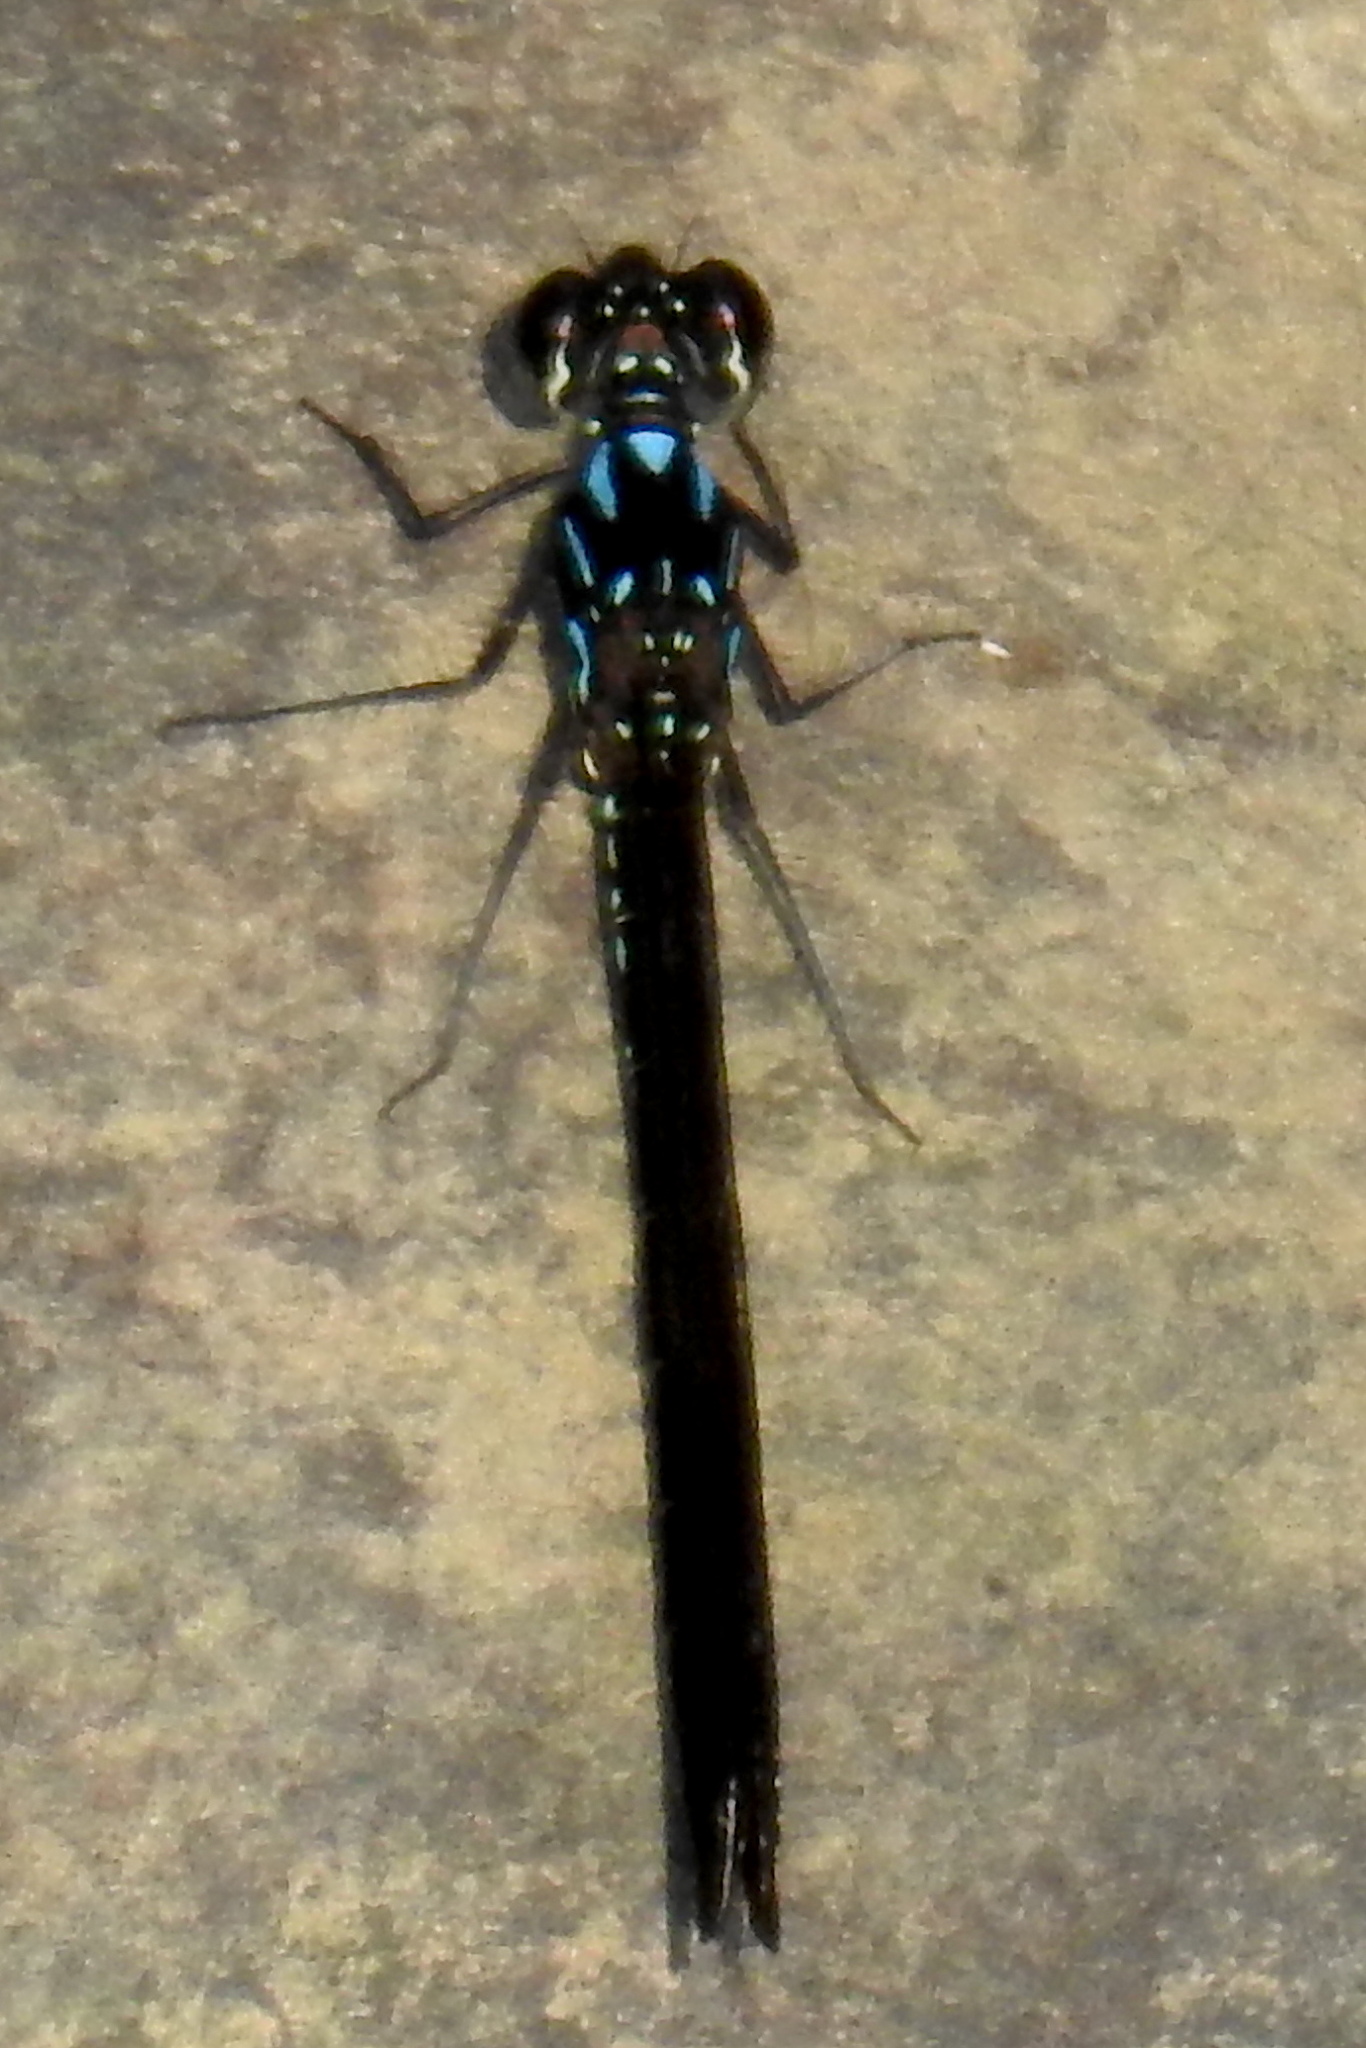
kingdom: Animalia
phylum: Arthropoda
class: Insecta
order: Odonata
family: Chlorocyphidae
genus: Heliocypha
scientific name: Heliocypha perforata
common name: Common blue jewel
